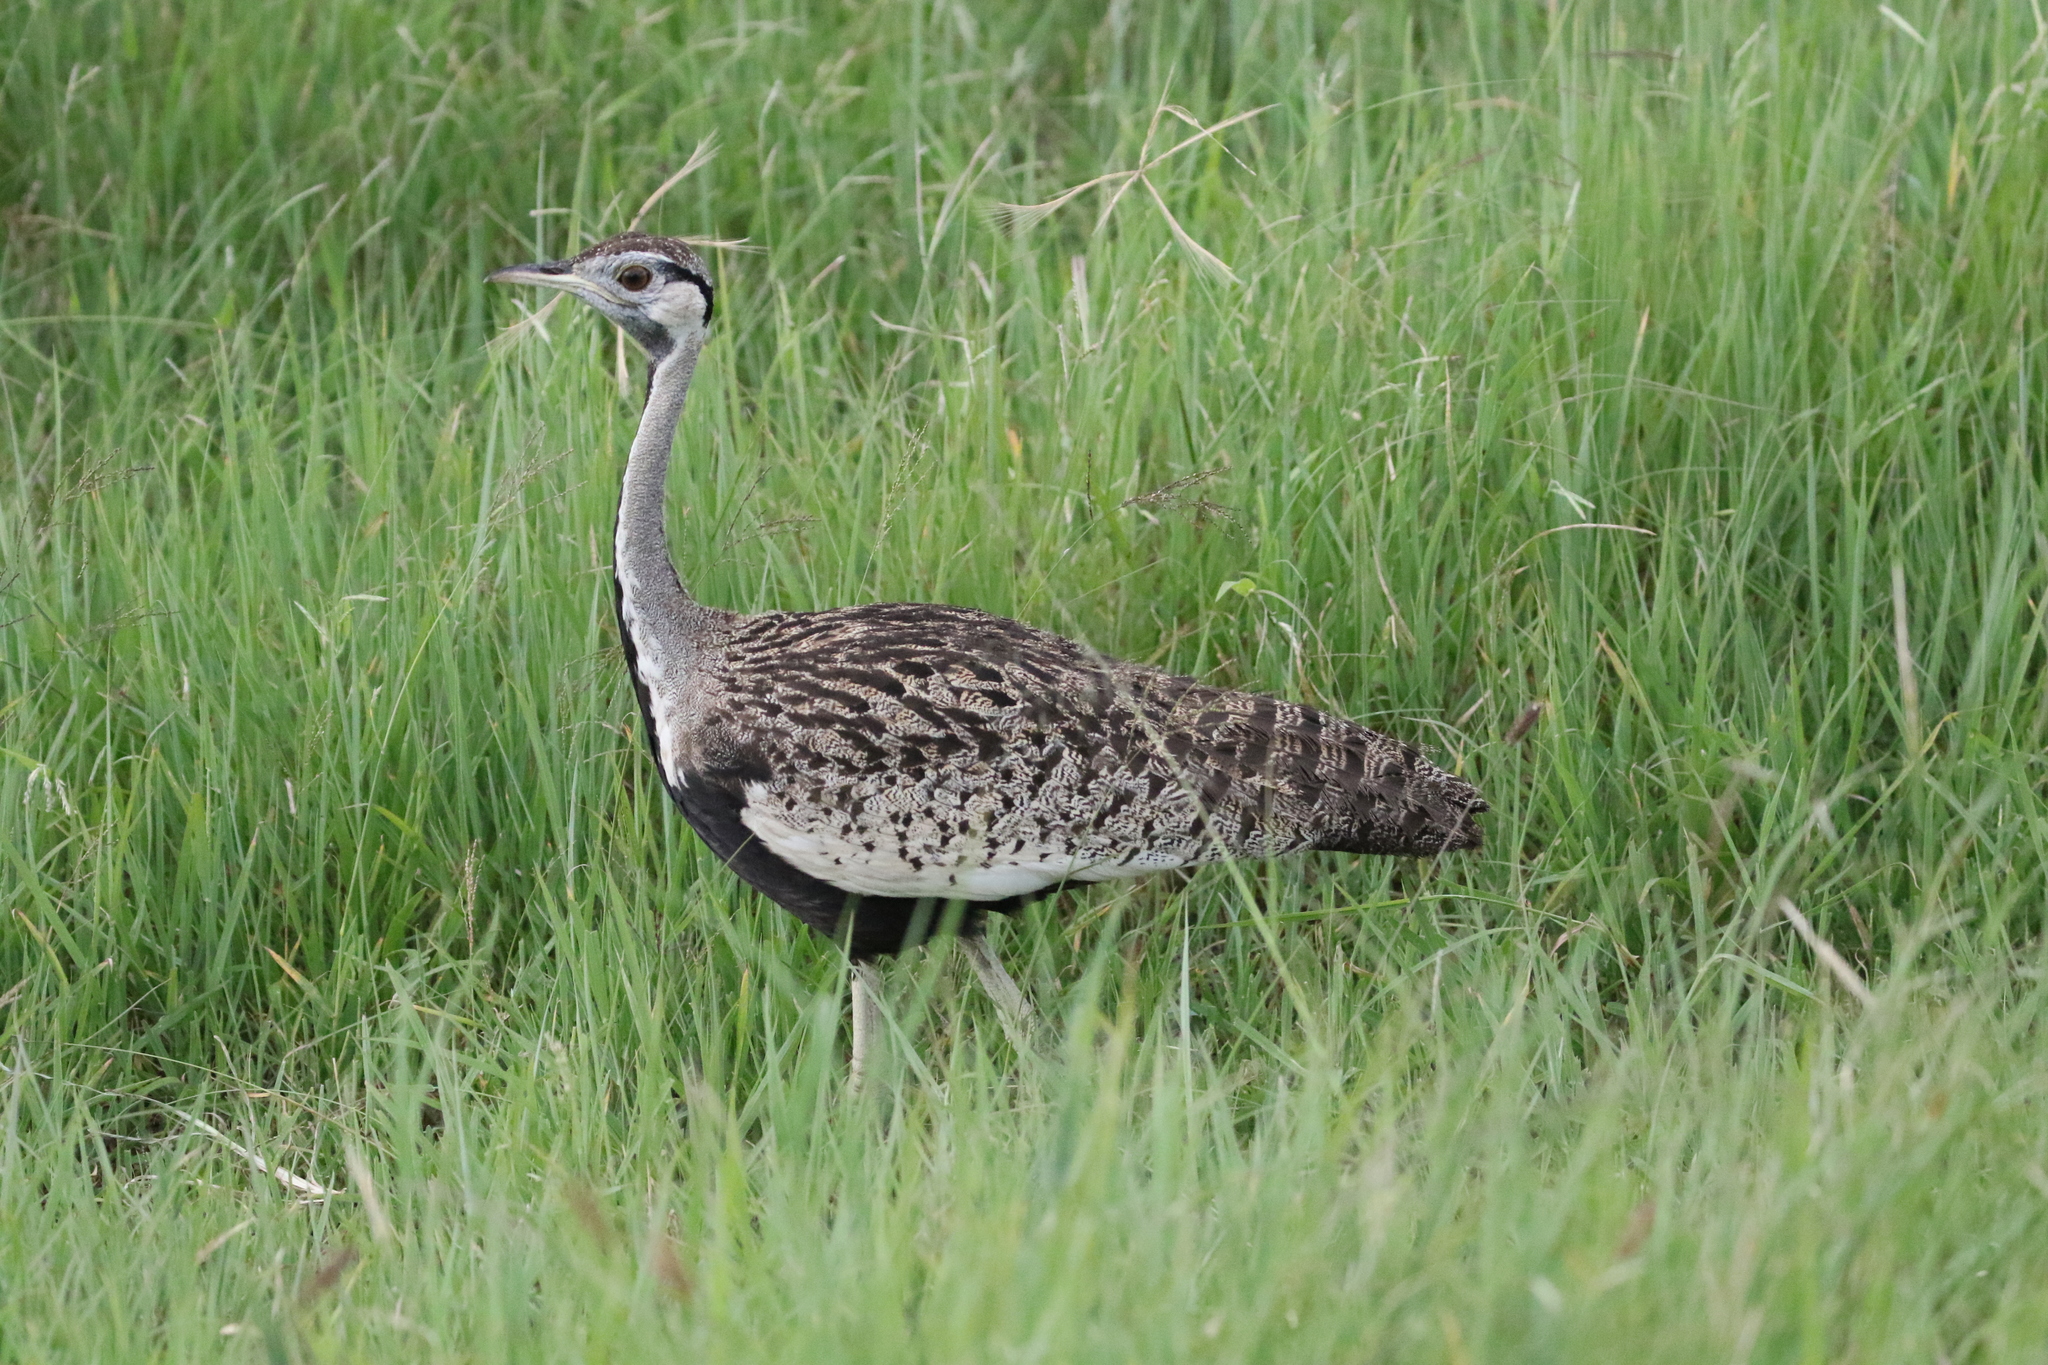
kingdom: Animalia
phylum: Chordata
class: Aves
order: Otidiformes
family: Otididae
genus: Lissotis
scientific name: Lissotis melanogaster
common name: Black-bellied bustard
